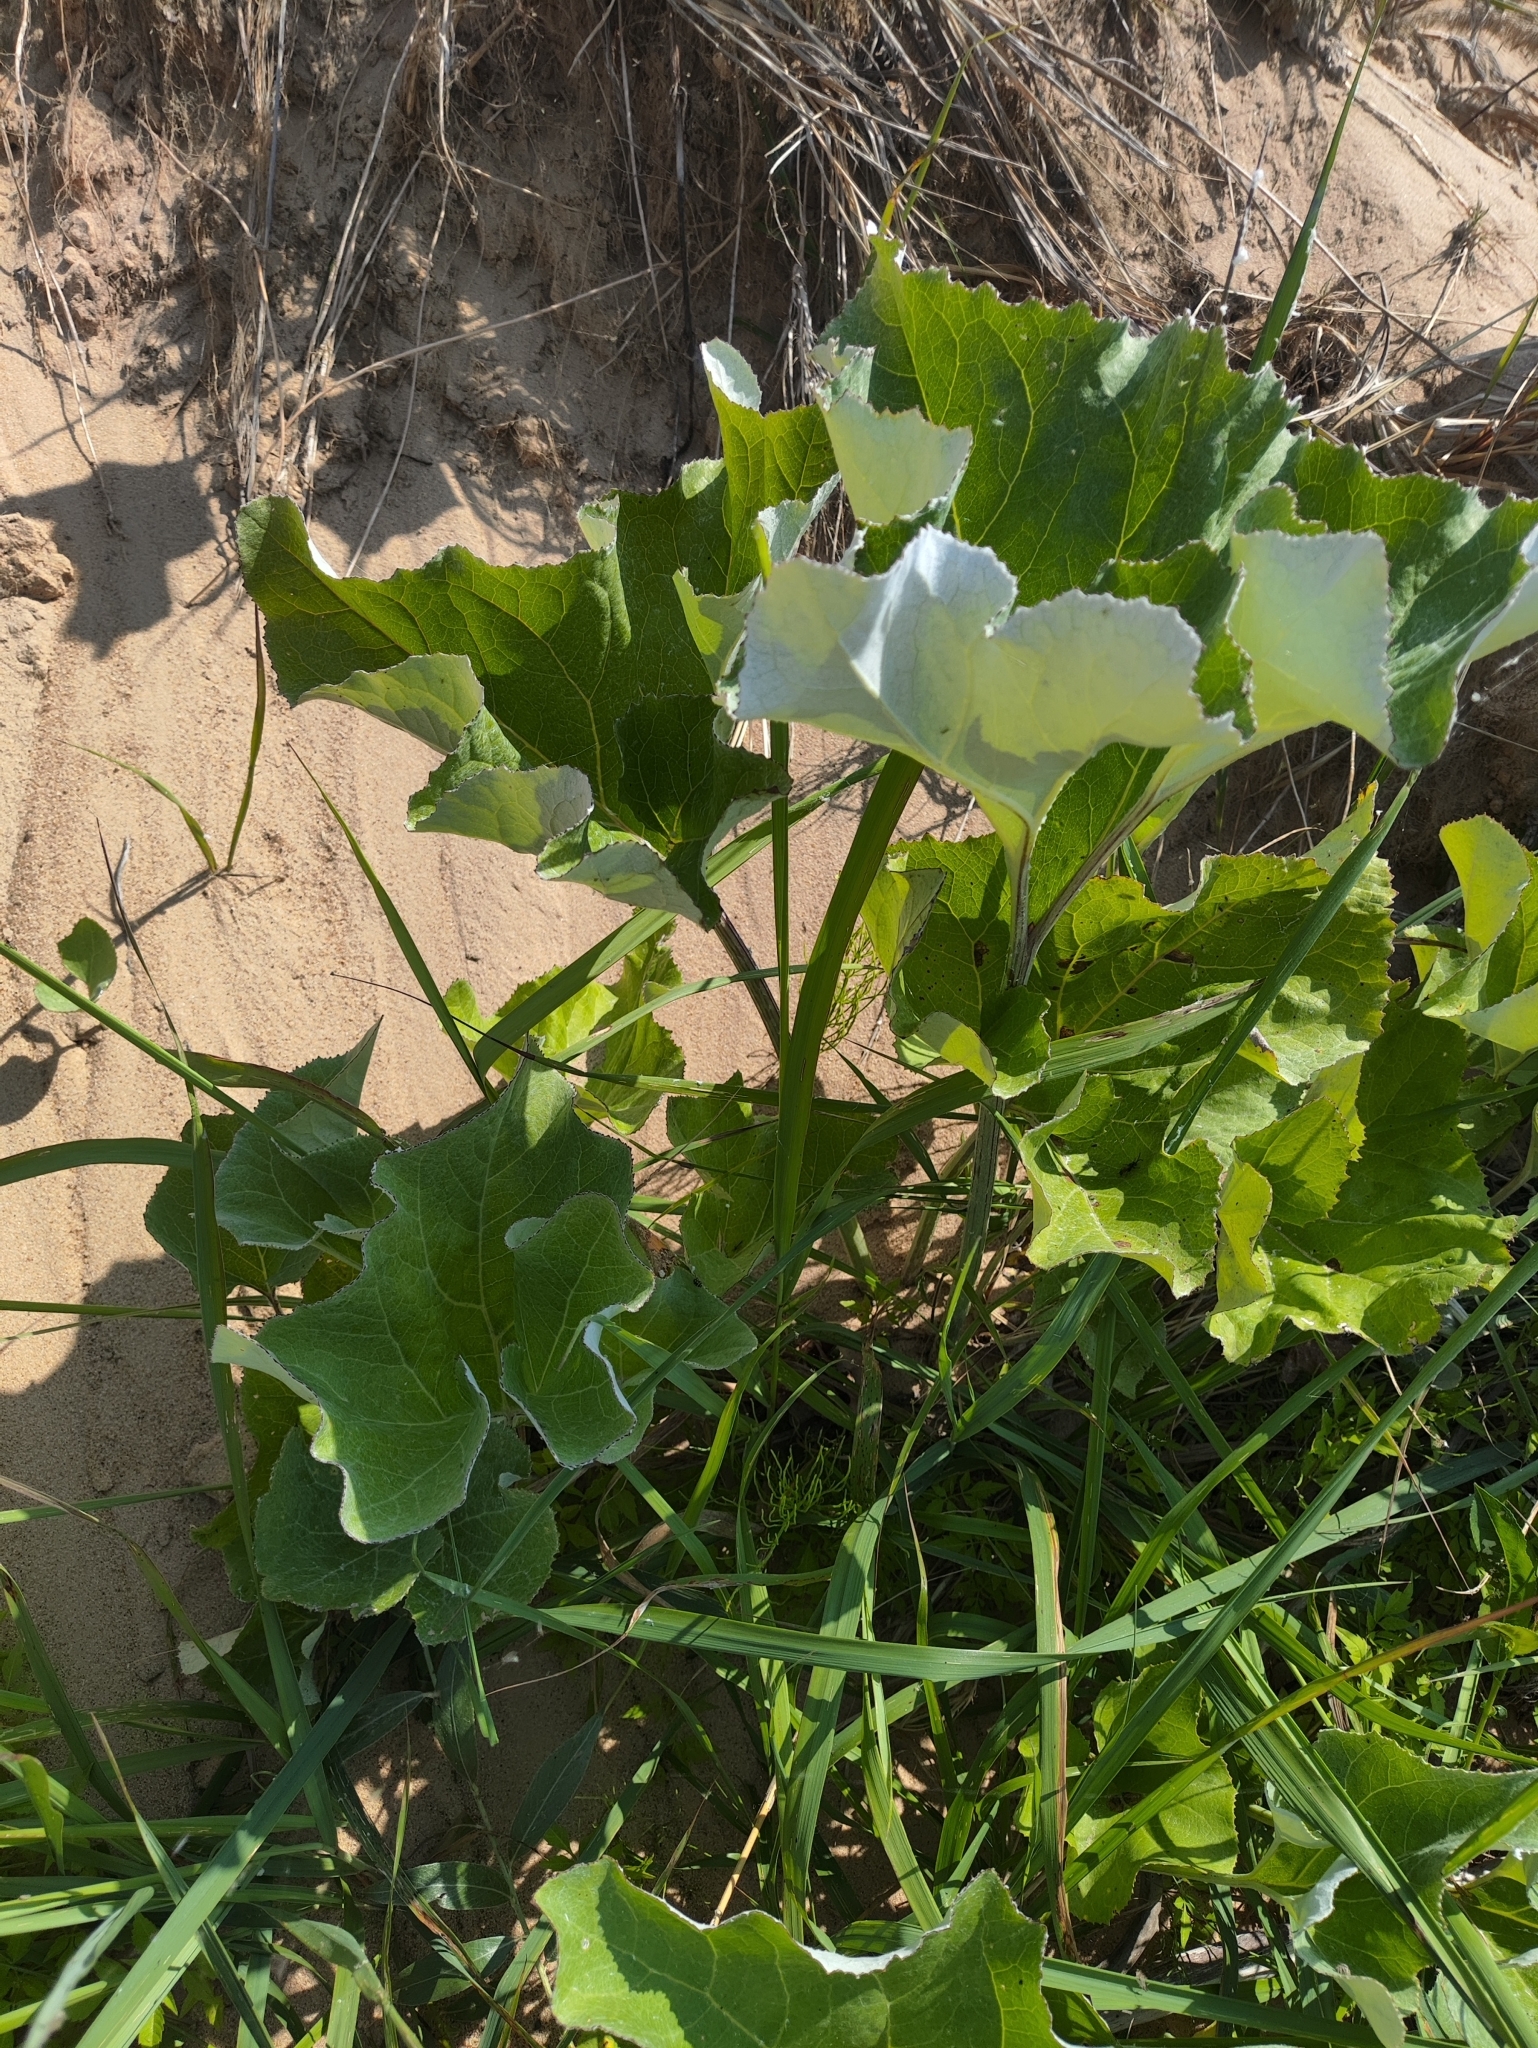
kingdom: Plantae
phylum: Tracheophyta
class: Magnoliopsida
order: Asterales
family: Asteraceae
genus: Petasites
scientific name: Petasites spurius
